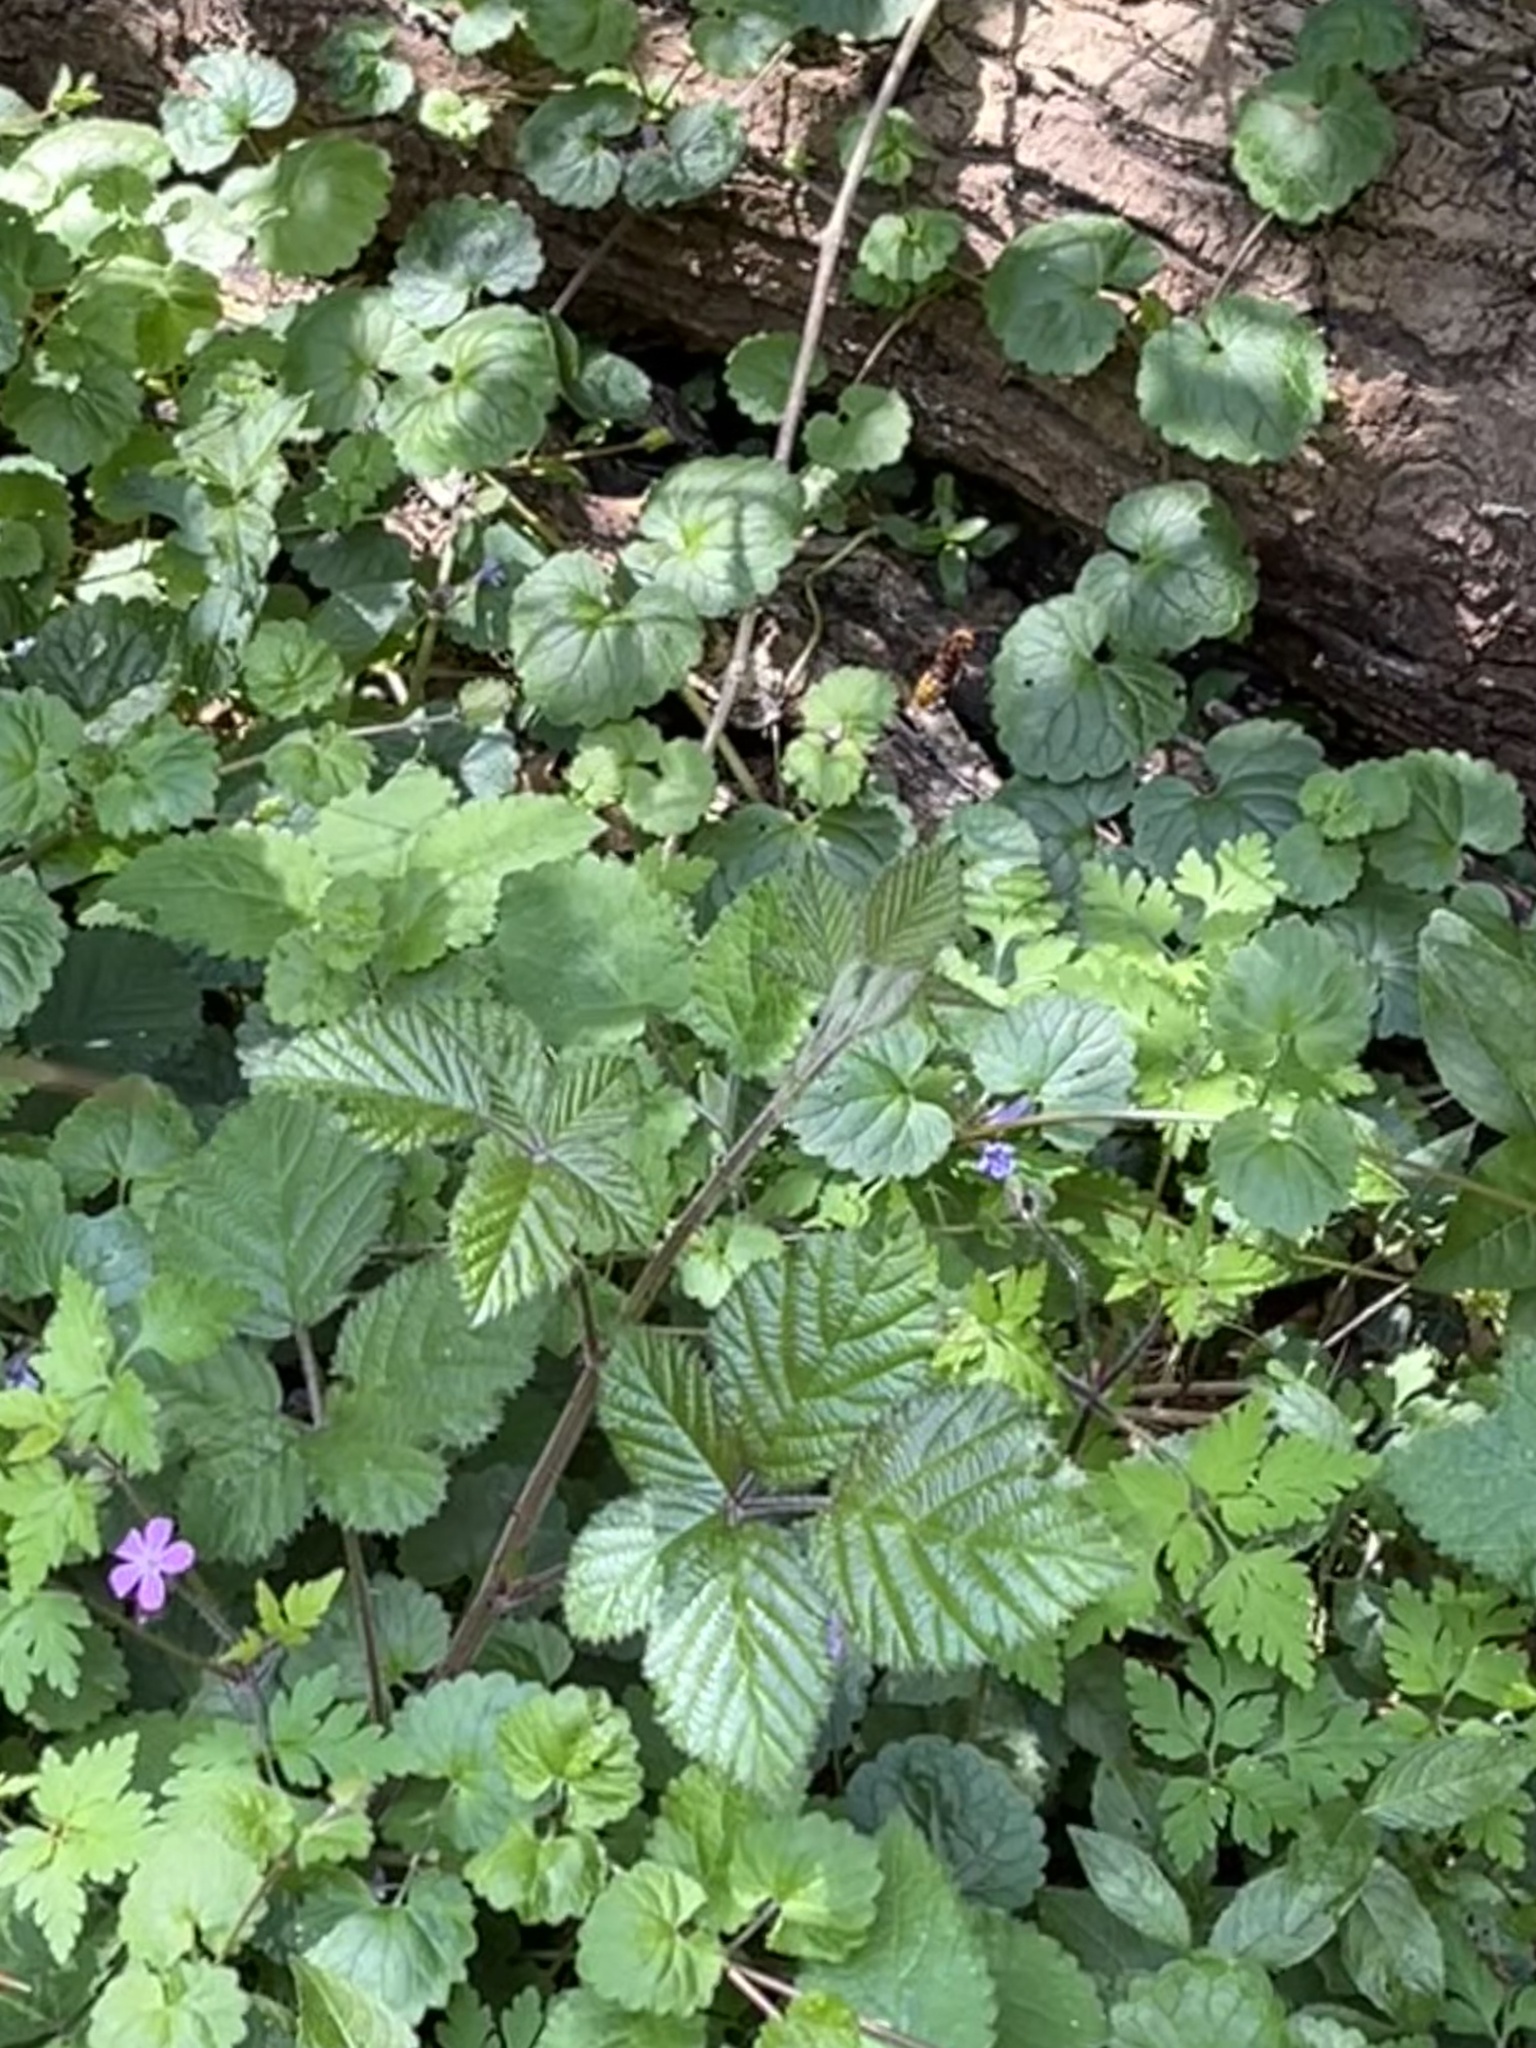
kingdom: Animalia
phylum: Arthropoda
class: Insecta
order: Hymenoptera
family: Vespidae
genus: Vespa
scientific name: Vespa crabro
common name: Hornet
